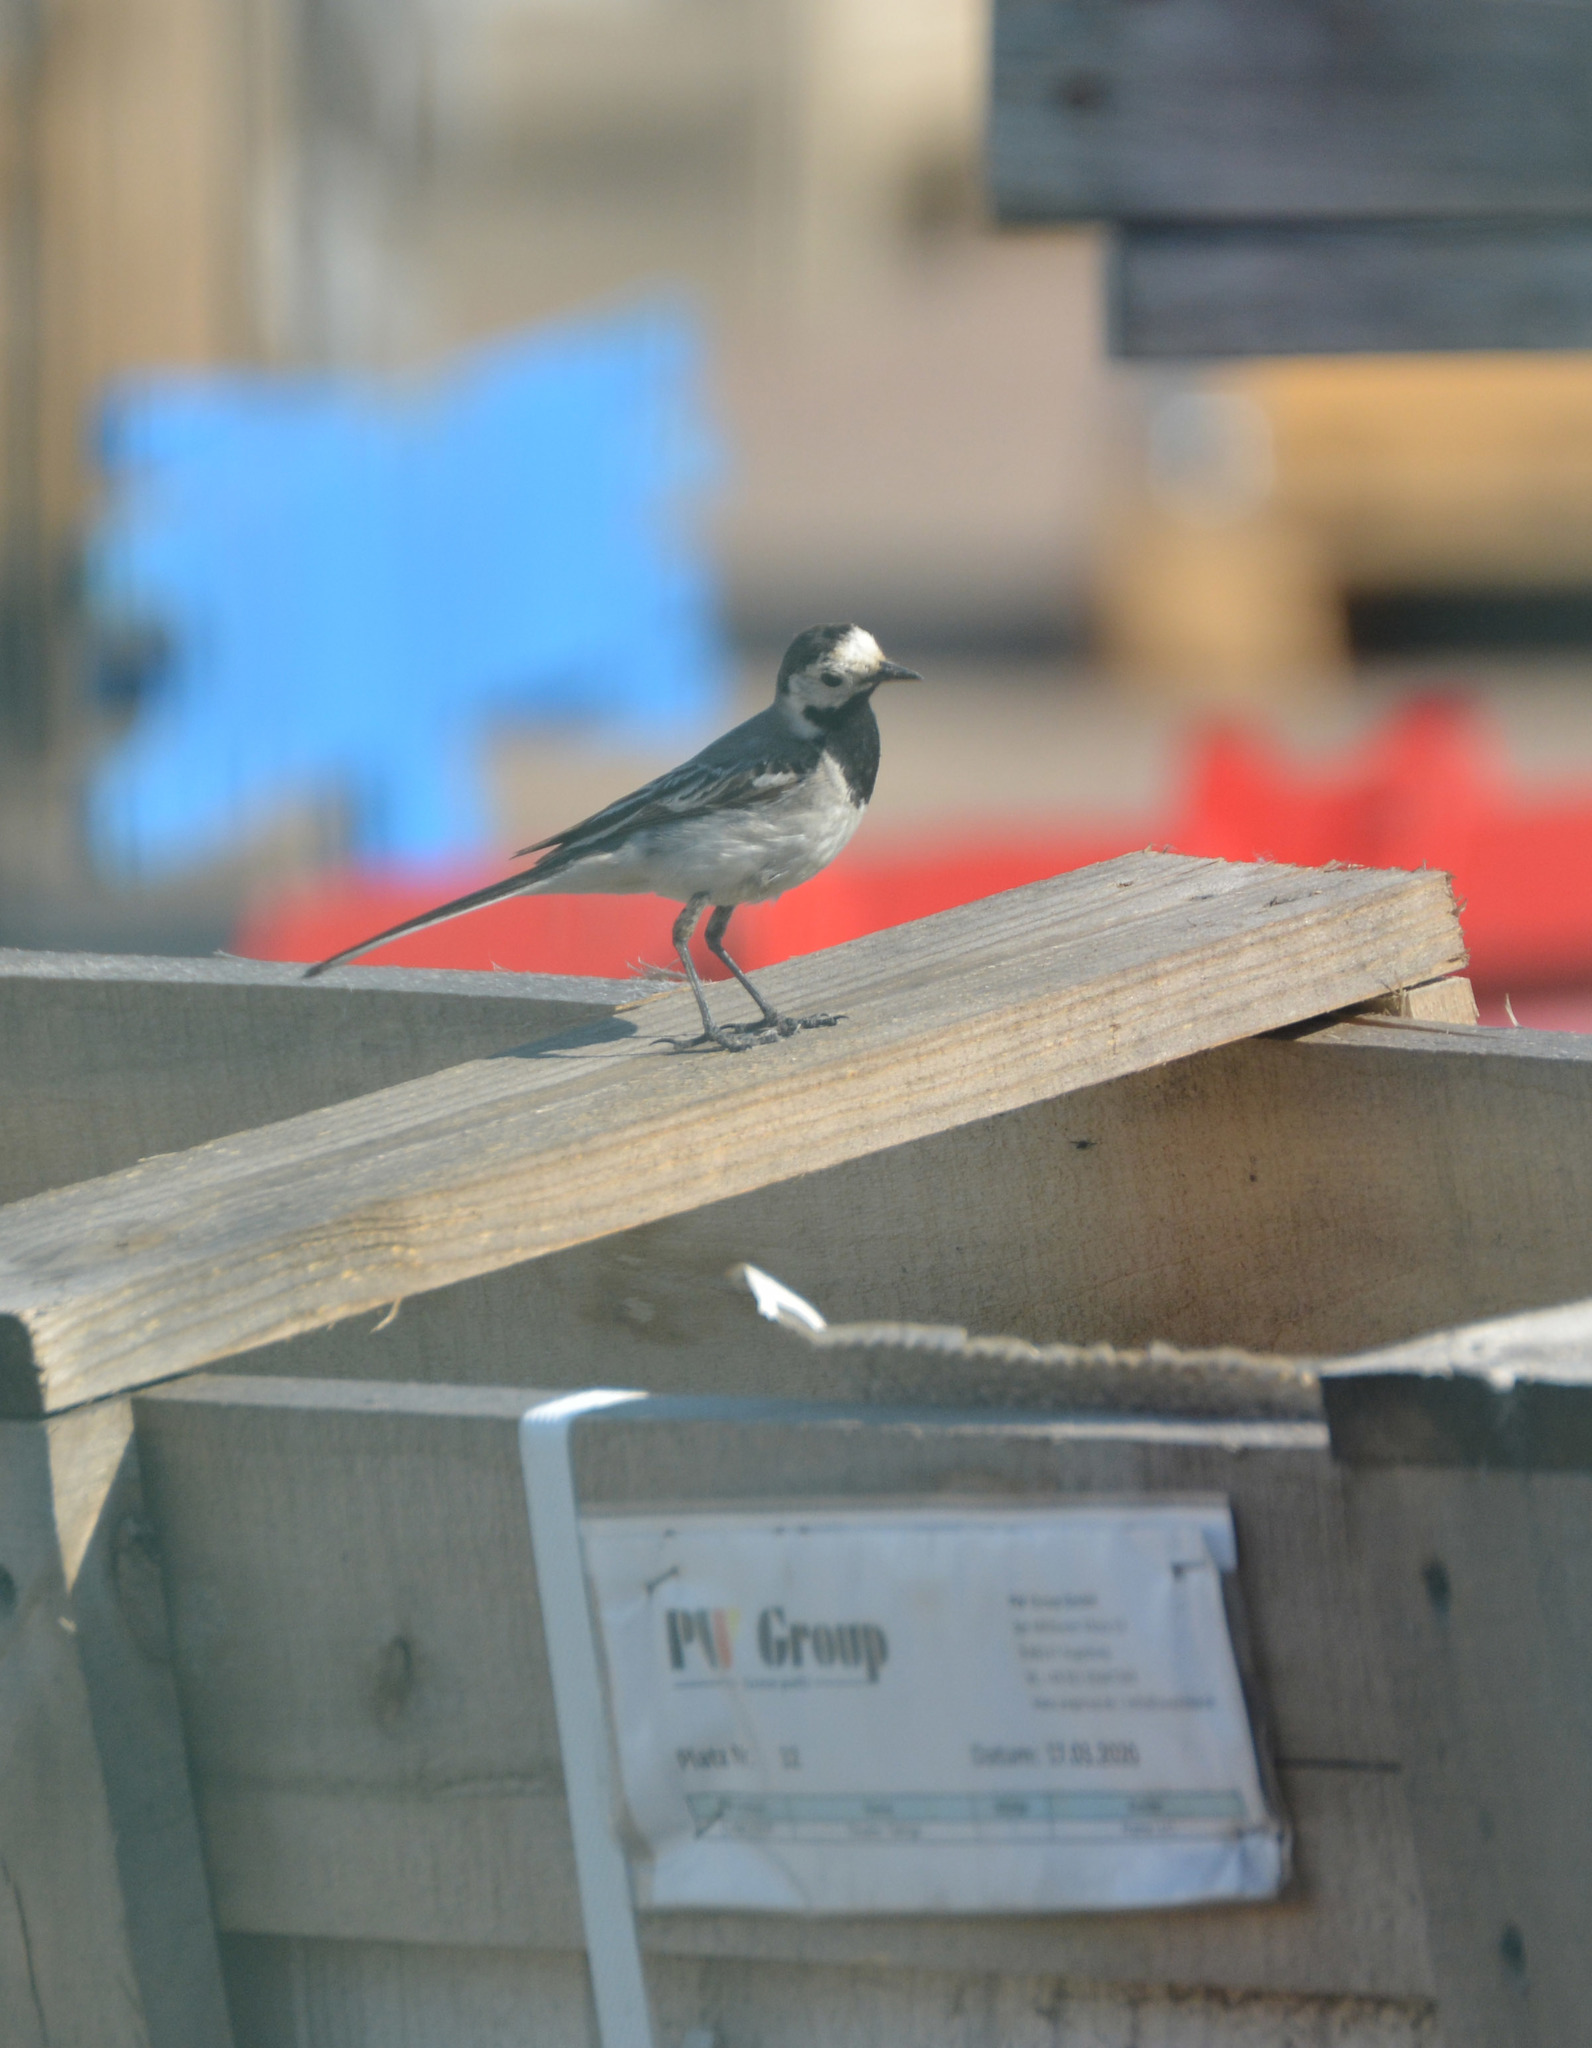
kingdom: Animalia
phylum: Chordata
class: Aves
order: Passeriformes
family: Motacillidae
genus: Motacilla
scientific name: Motacilla alba
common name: White wagtail
